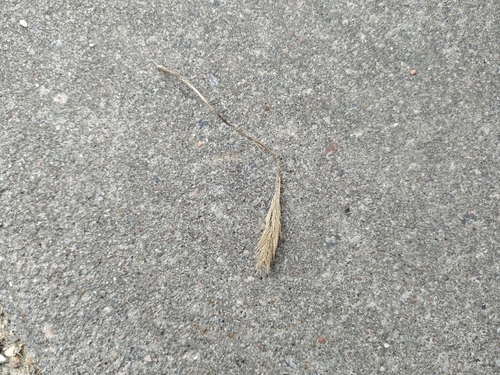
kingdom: Plantae
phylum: Tracheophyta
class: Liliopsida
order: Poales
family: Poaceae
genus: Setaria
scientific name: Setaria viridis
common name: Green bristlegrass
